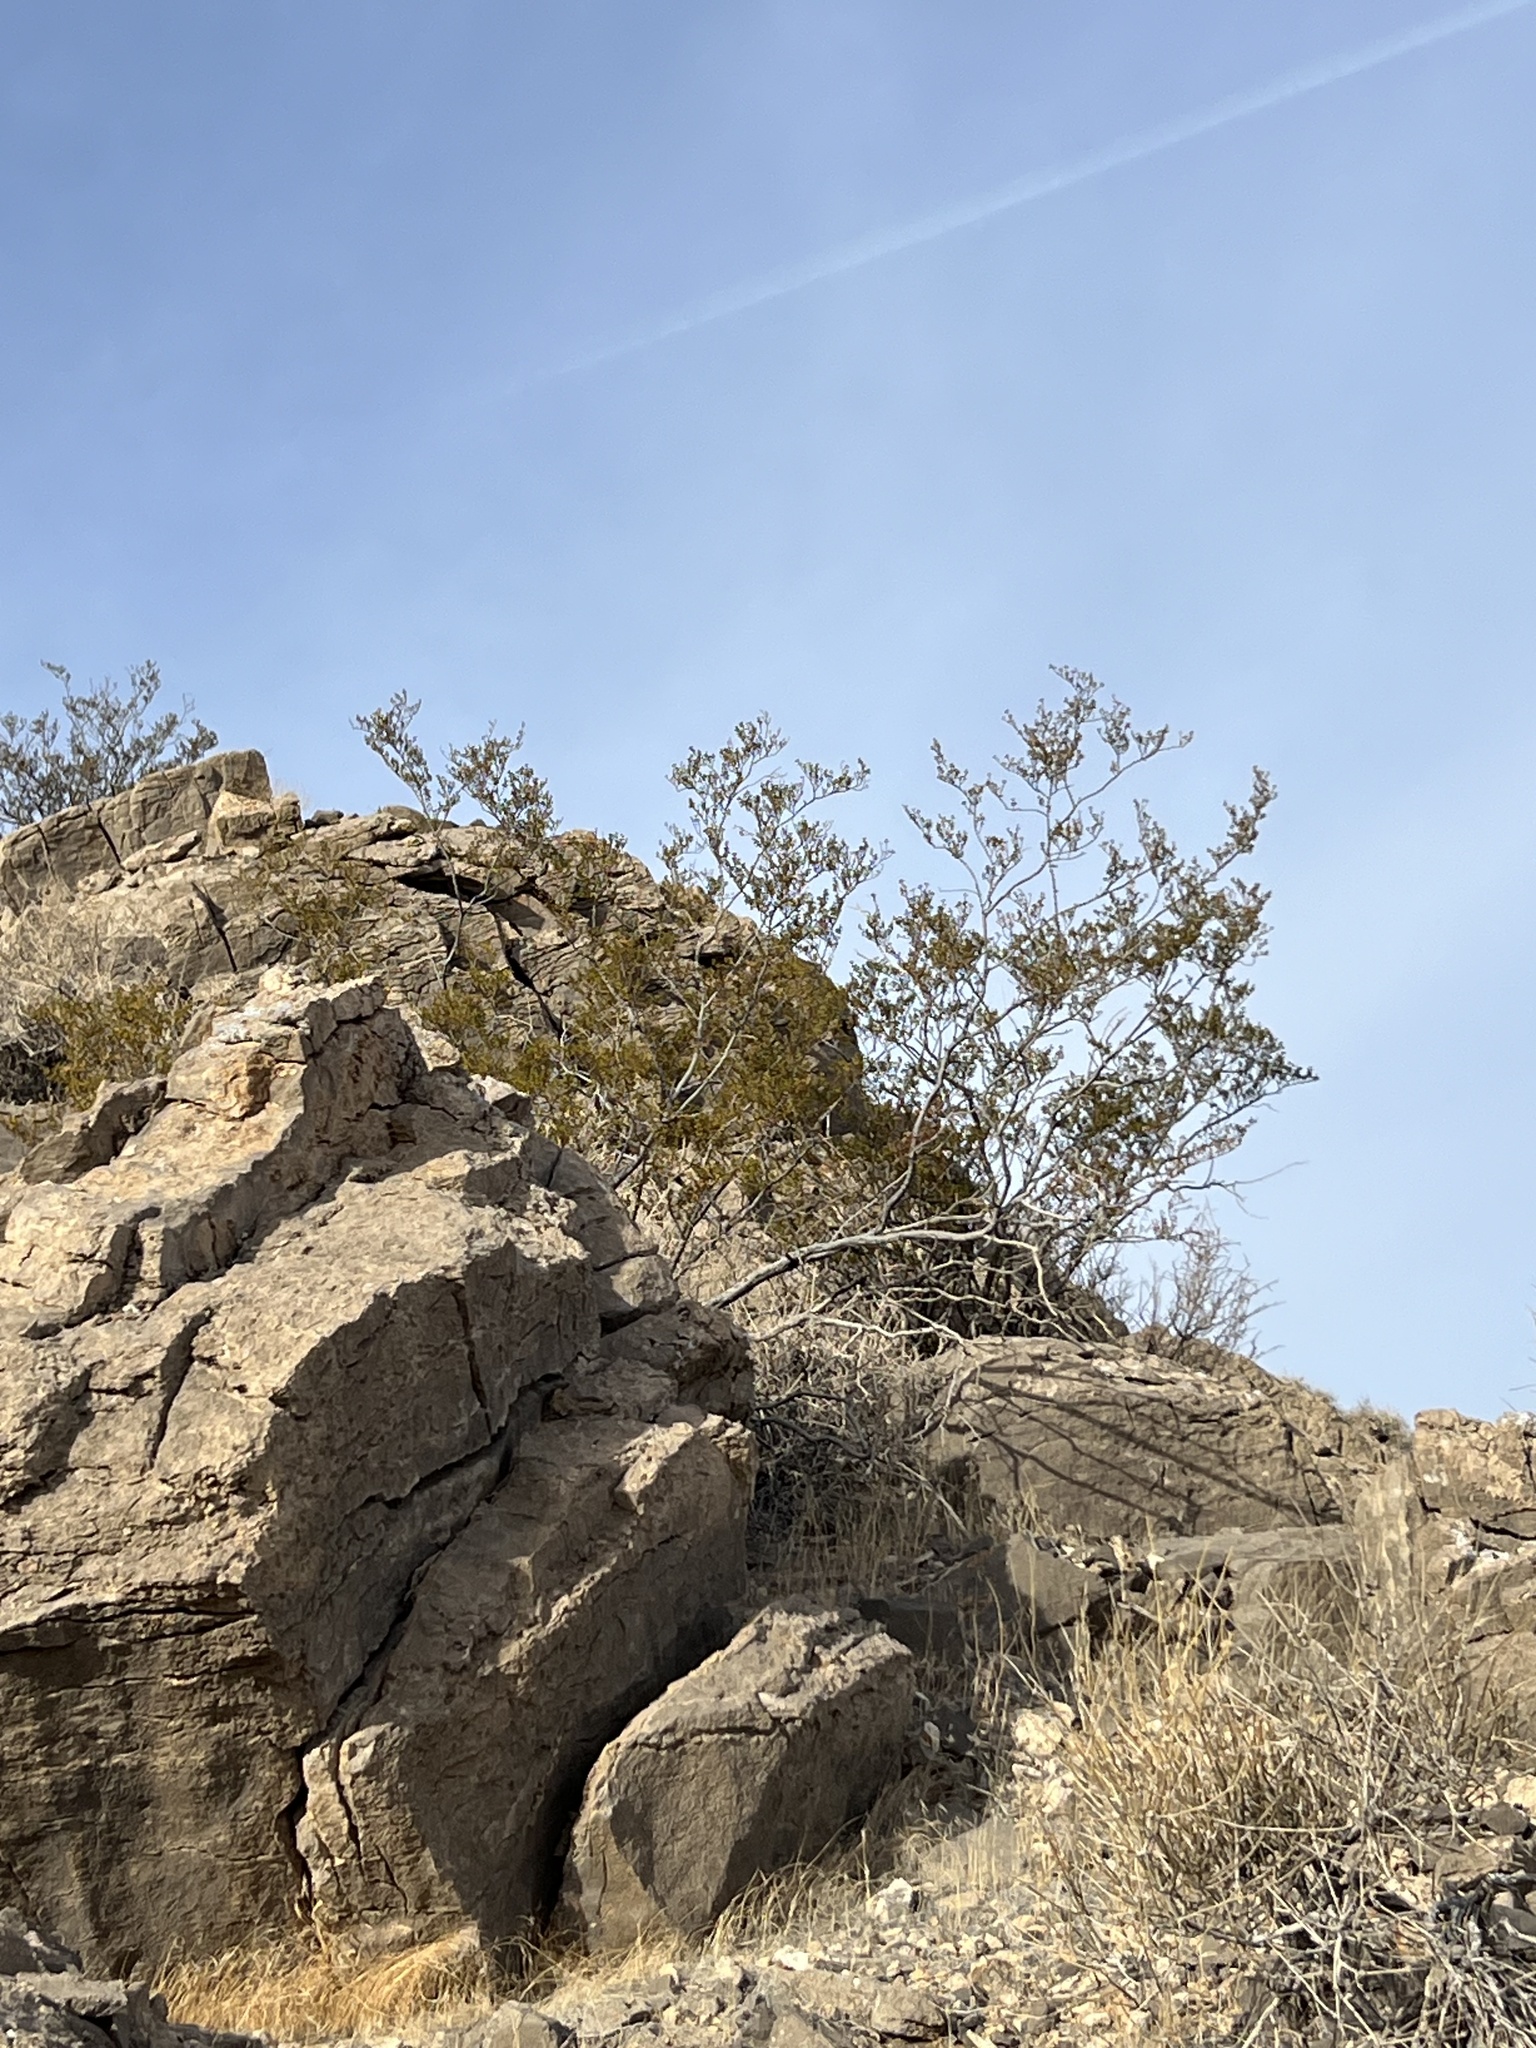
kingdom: Plantae
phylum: Tracheophyta
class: Magnoliopsida
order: Zygophyllales
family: Zygophyllaceae
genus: Larrea
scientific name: Larrea tridentata
